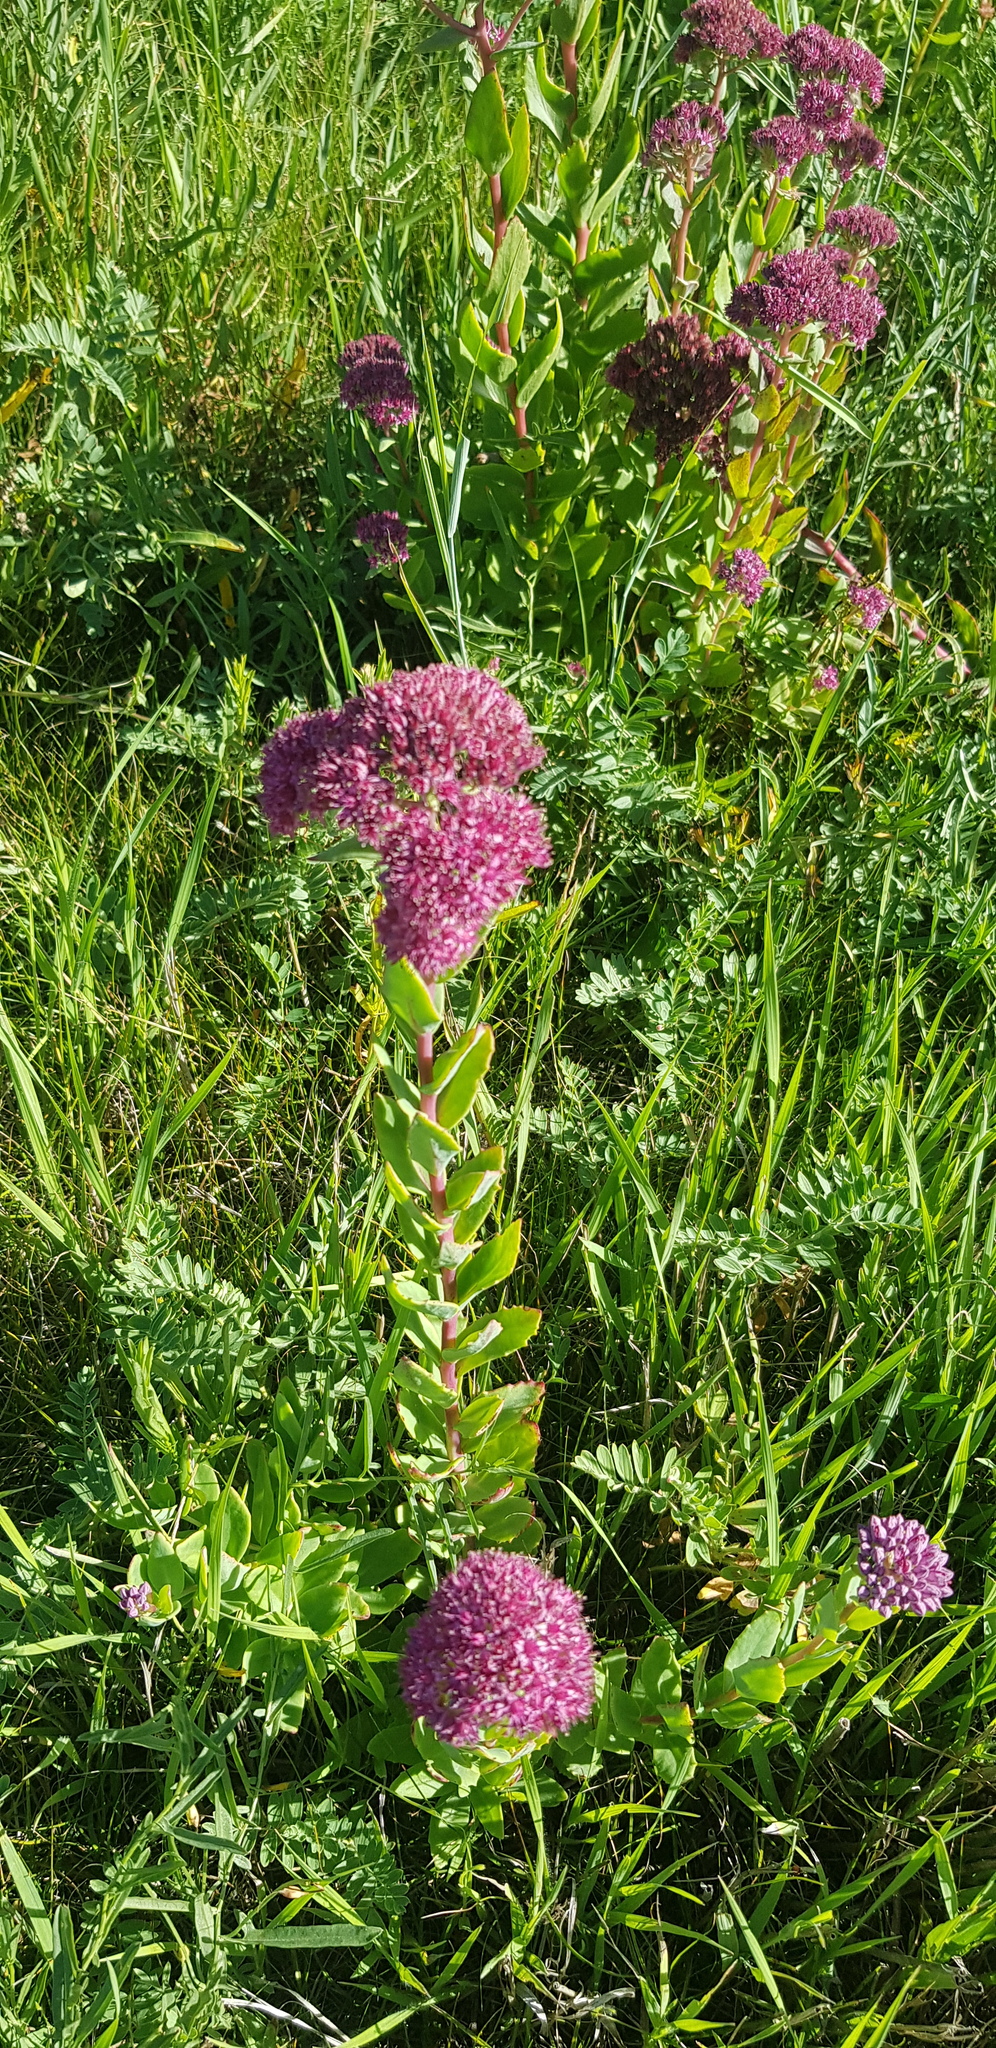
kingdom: Plantae
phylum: Tracheophyta
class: Magnoliopsida
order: Saxifragales
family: Crassulaceae
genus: Hylotelephium
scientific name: Hylotelephium telephium
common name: Live-forever
